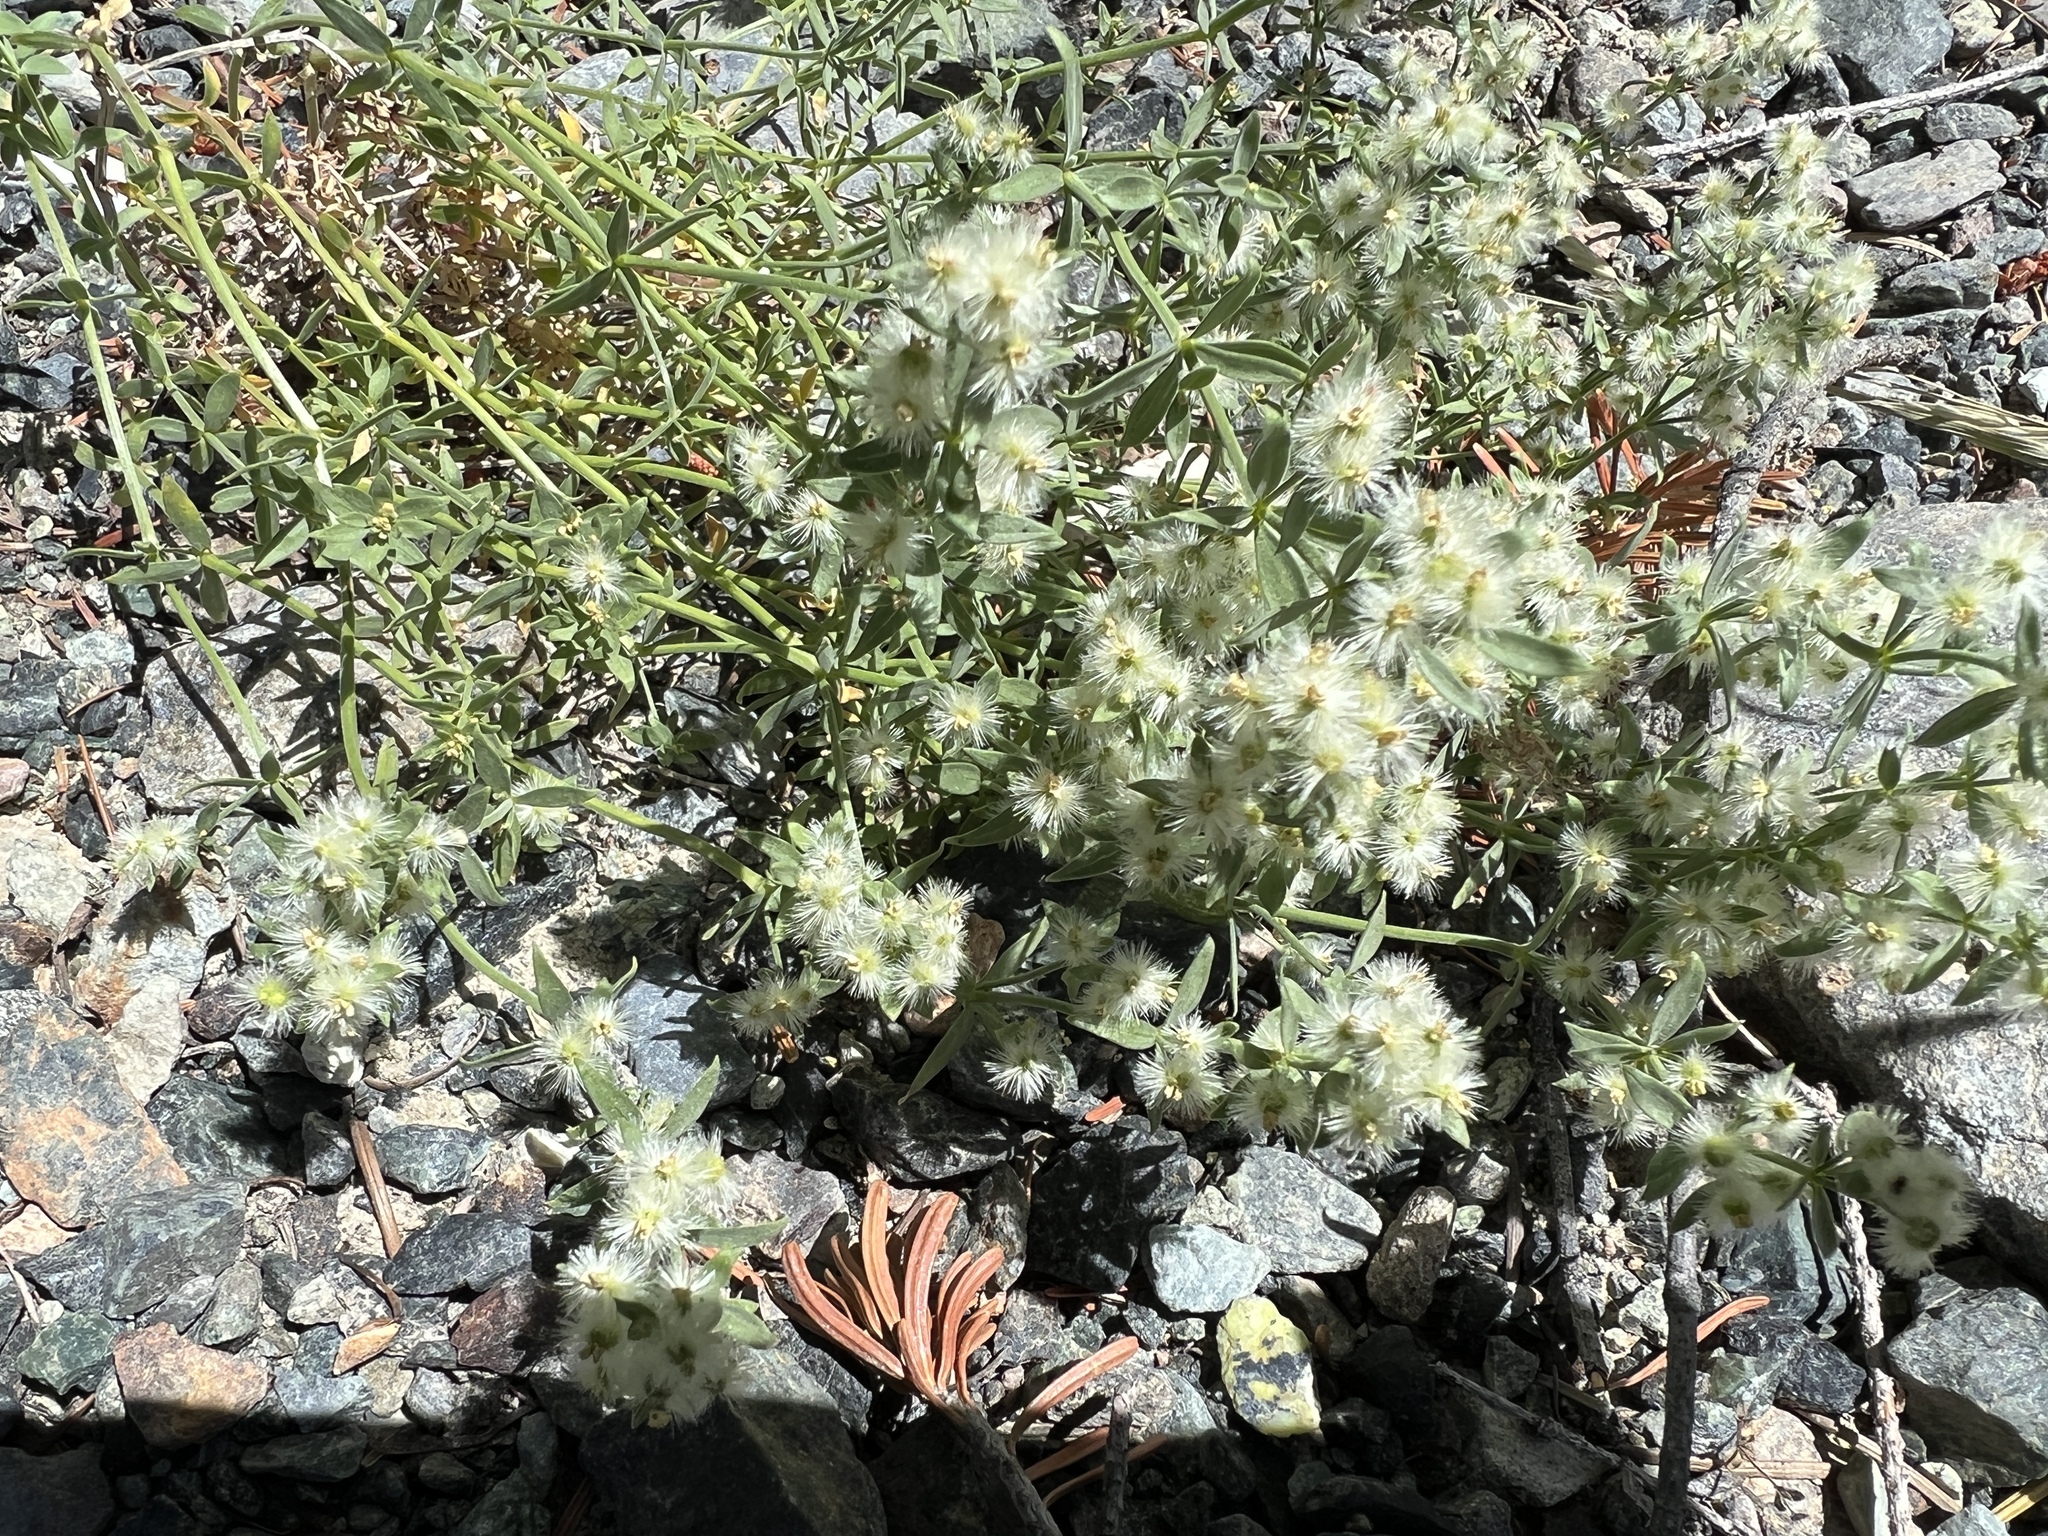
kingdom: Plantae
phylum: Tracheophyta
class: Magnoliopsida
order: Gentianales
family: Rubiaceae
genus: Galium
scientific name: Galium serpenticum
